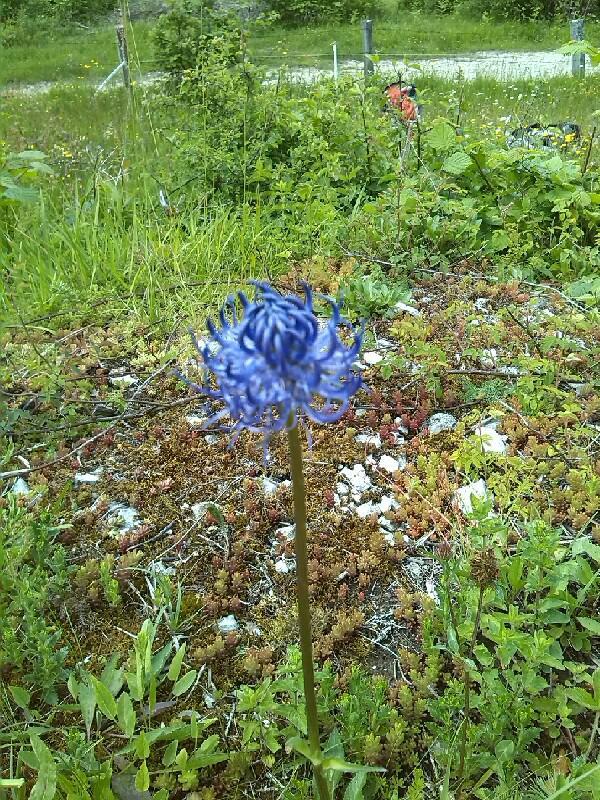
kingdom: Plantae
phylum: Tracheophyta
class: Magnoliopsida
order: Asterales
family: Campanulaceae
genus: Phyteuma
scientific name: Phyteuma orbiculare
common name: Round-headed rampion
